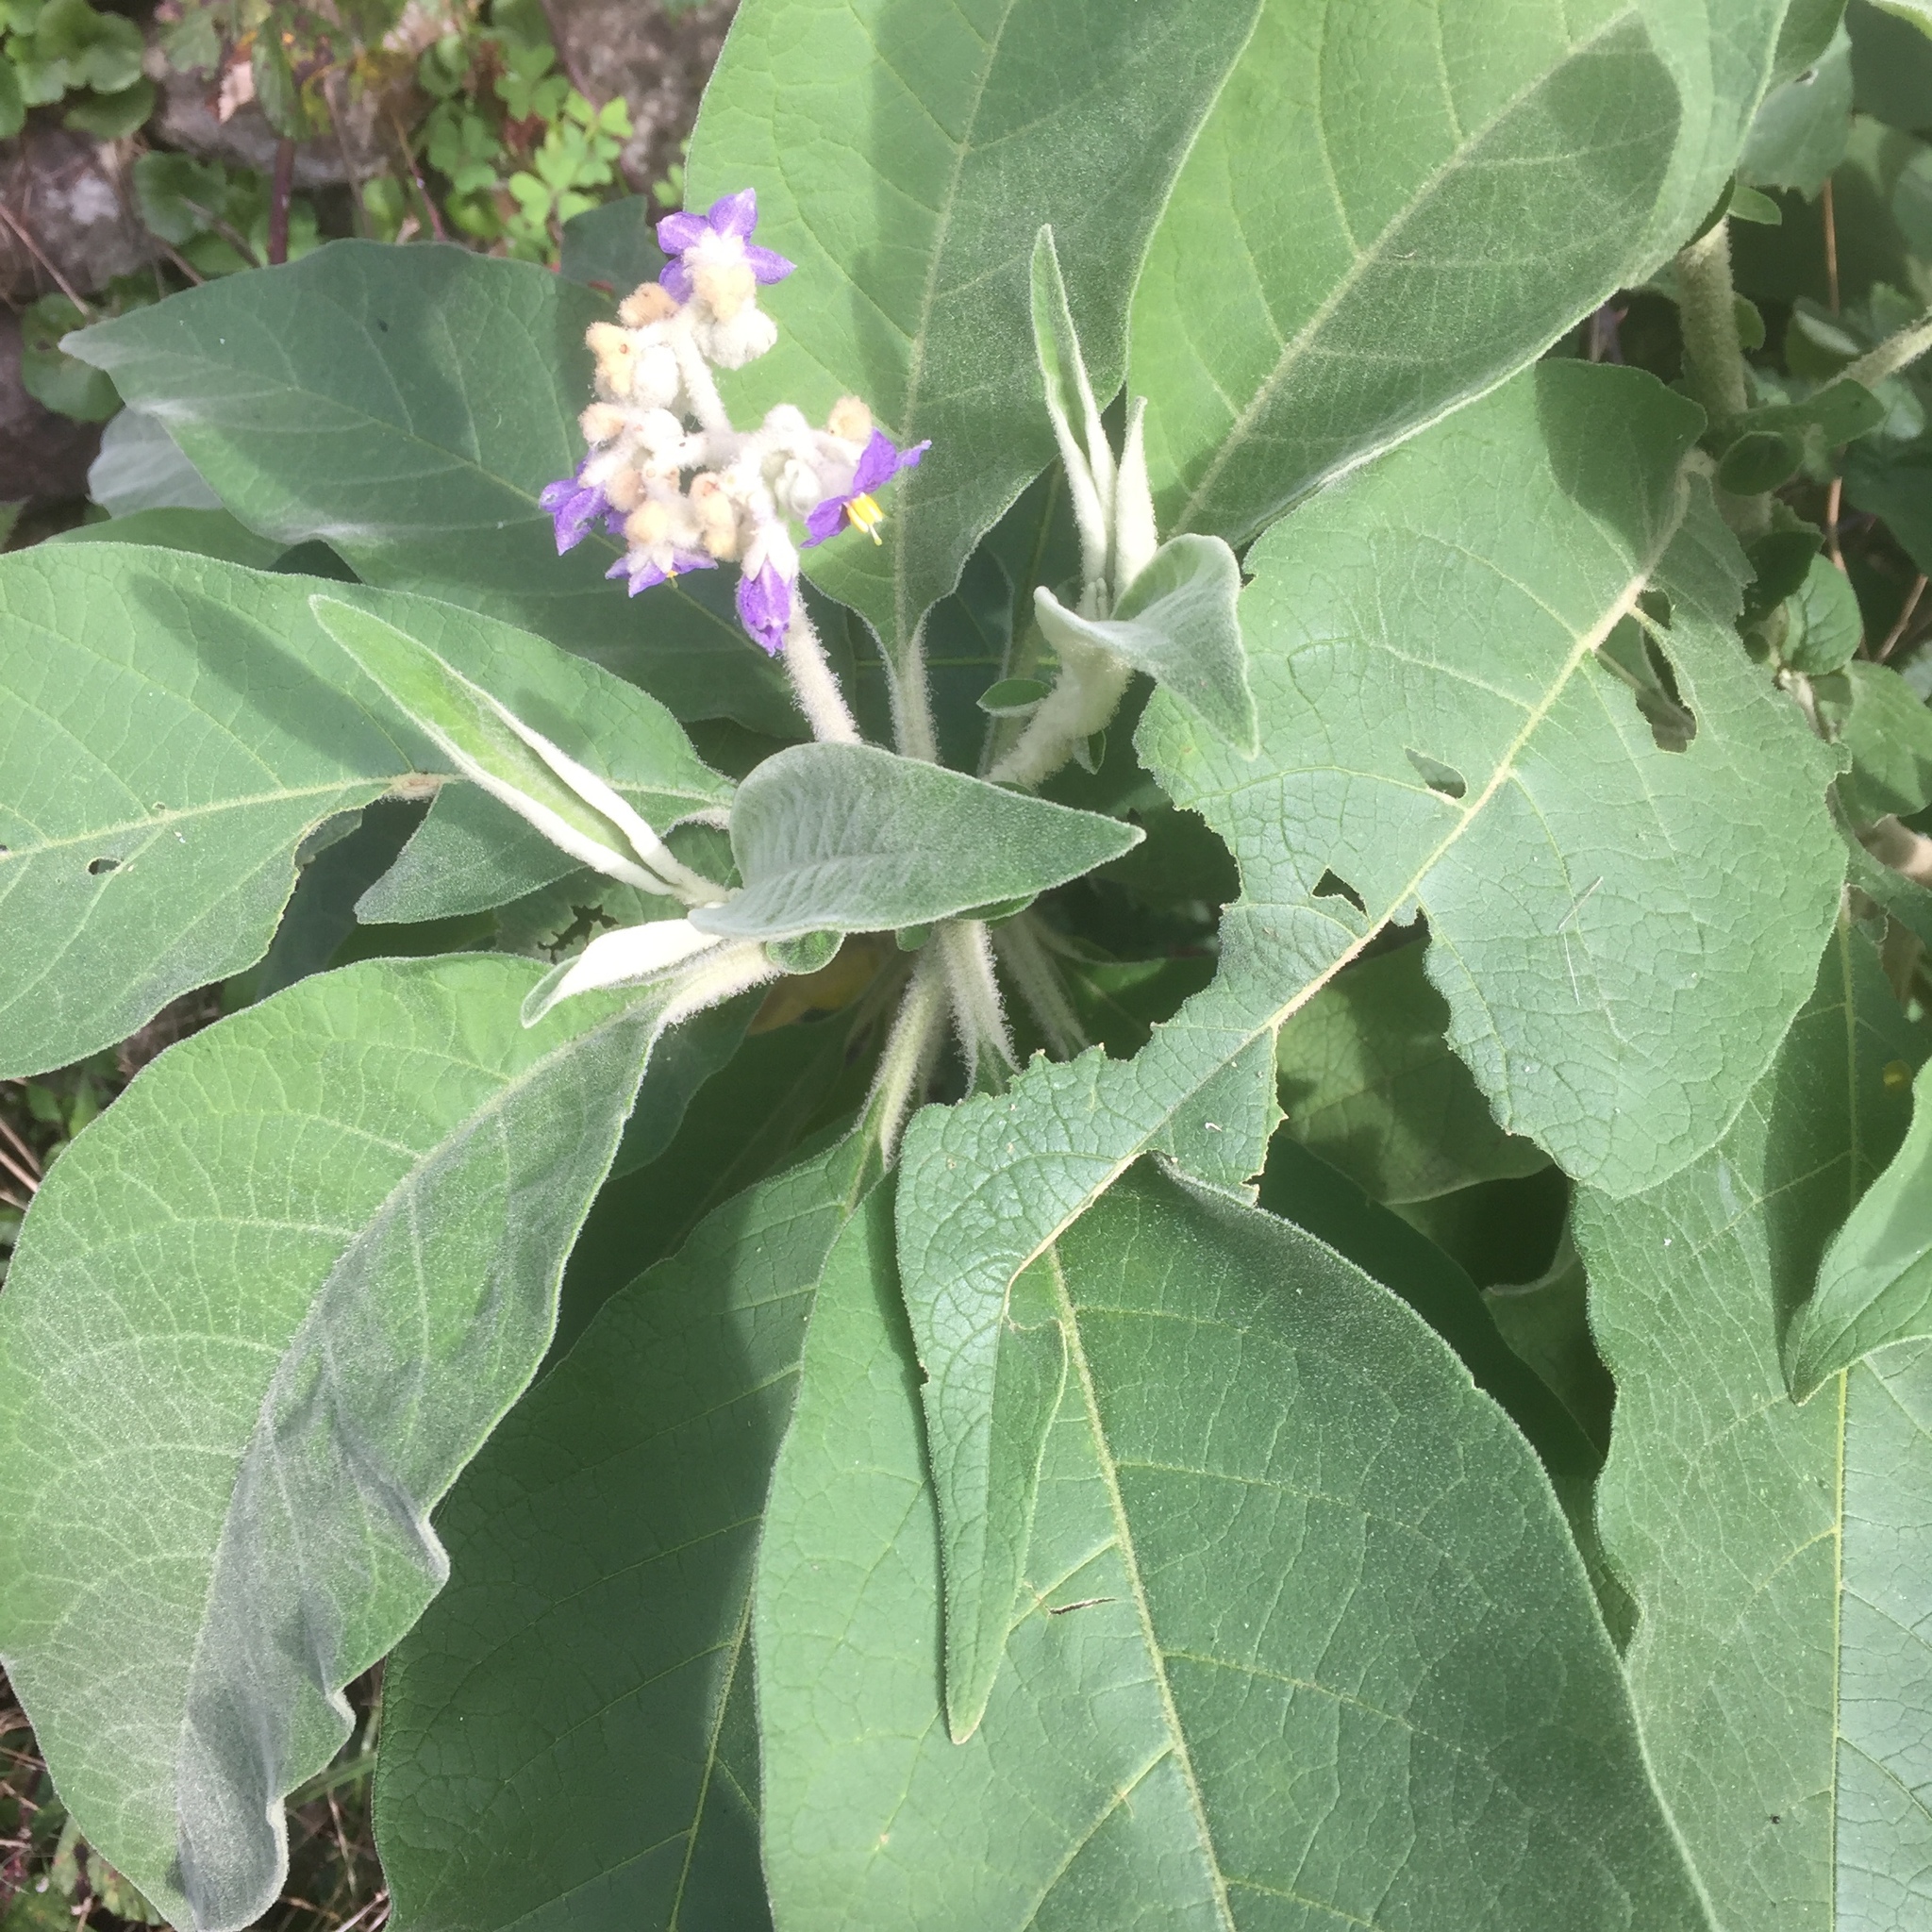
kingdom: Plantae
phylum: Tracheophyta
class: Magnoliopsida
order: Solanales
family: Solanaceae
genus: Solanum
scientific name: Solanum mauritianum
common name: Earleaf nightshade
